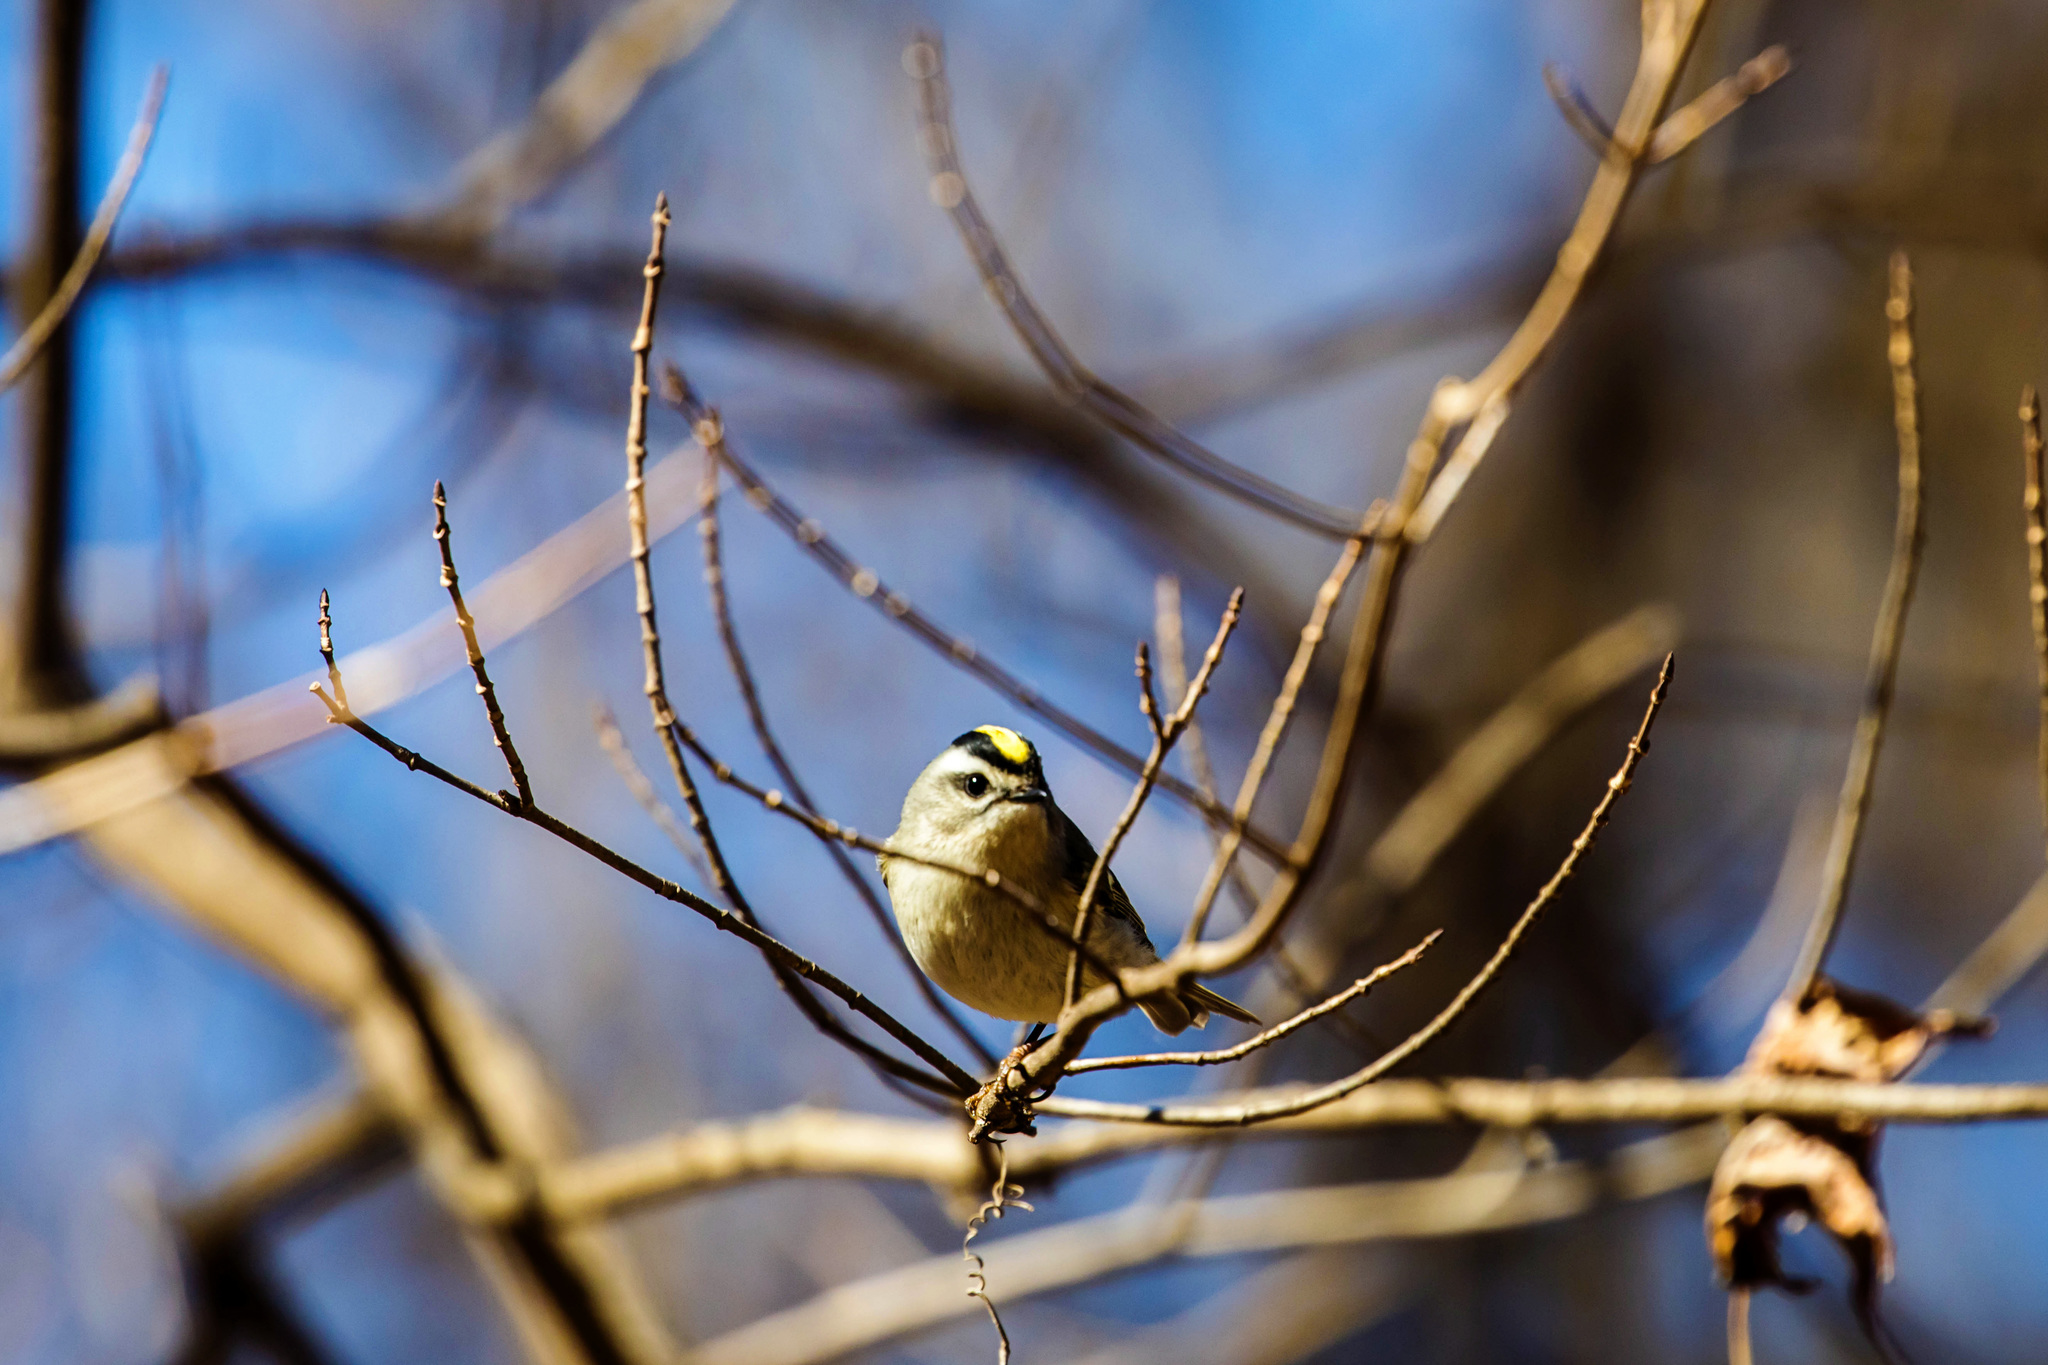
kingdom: Animalia
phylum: Chordata
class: Aves
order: Passeriformes
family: Regulidae
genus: Regulus
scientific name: Regulus satrapa
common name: Golden-crowned kinglet
